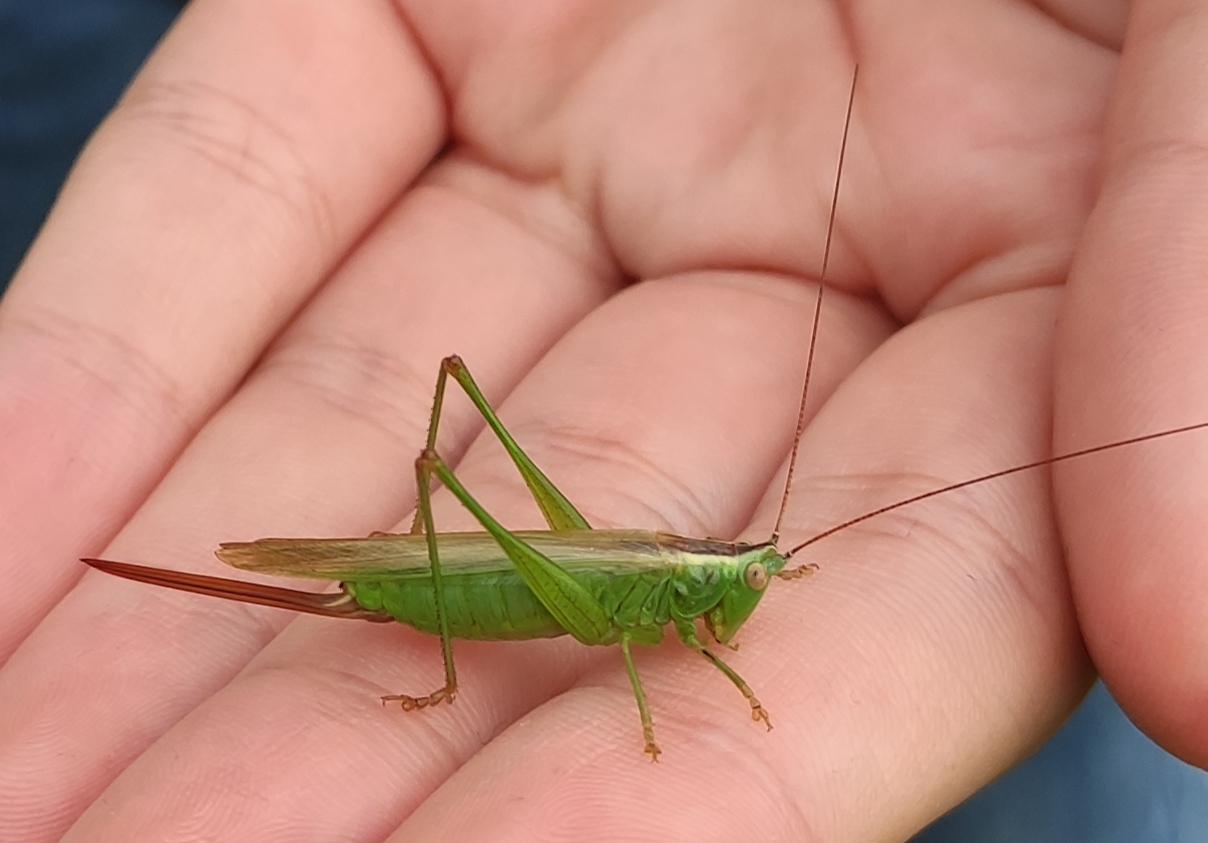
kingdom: Animalia
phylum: Arthropoda
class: Insecta
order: Orthoptera
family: Tettigoniidae
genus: Conocephalus
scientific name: Conocephalus fuscus
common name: Long-winged conehead
